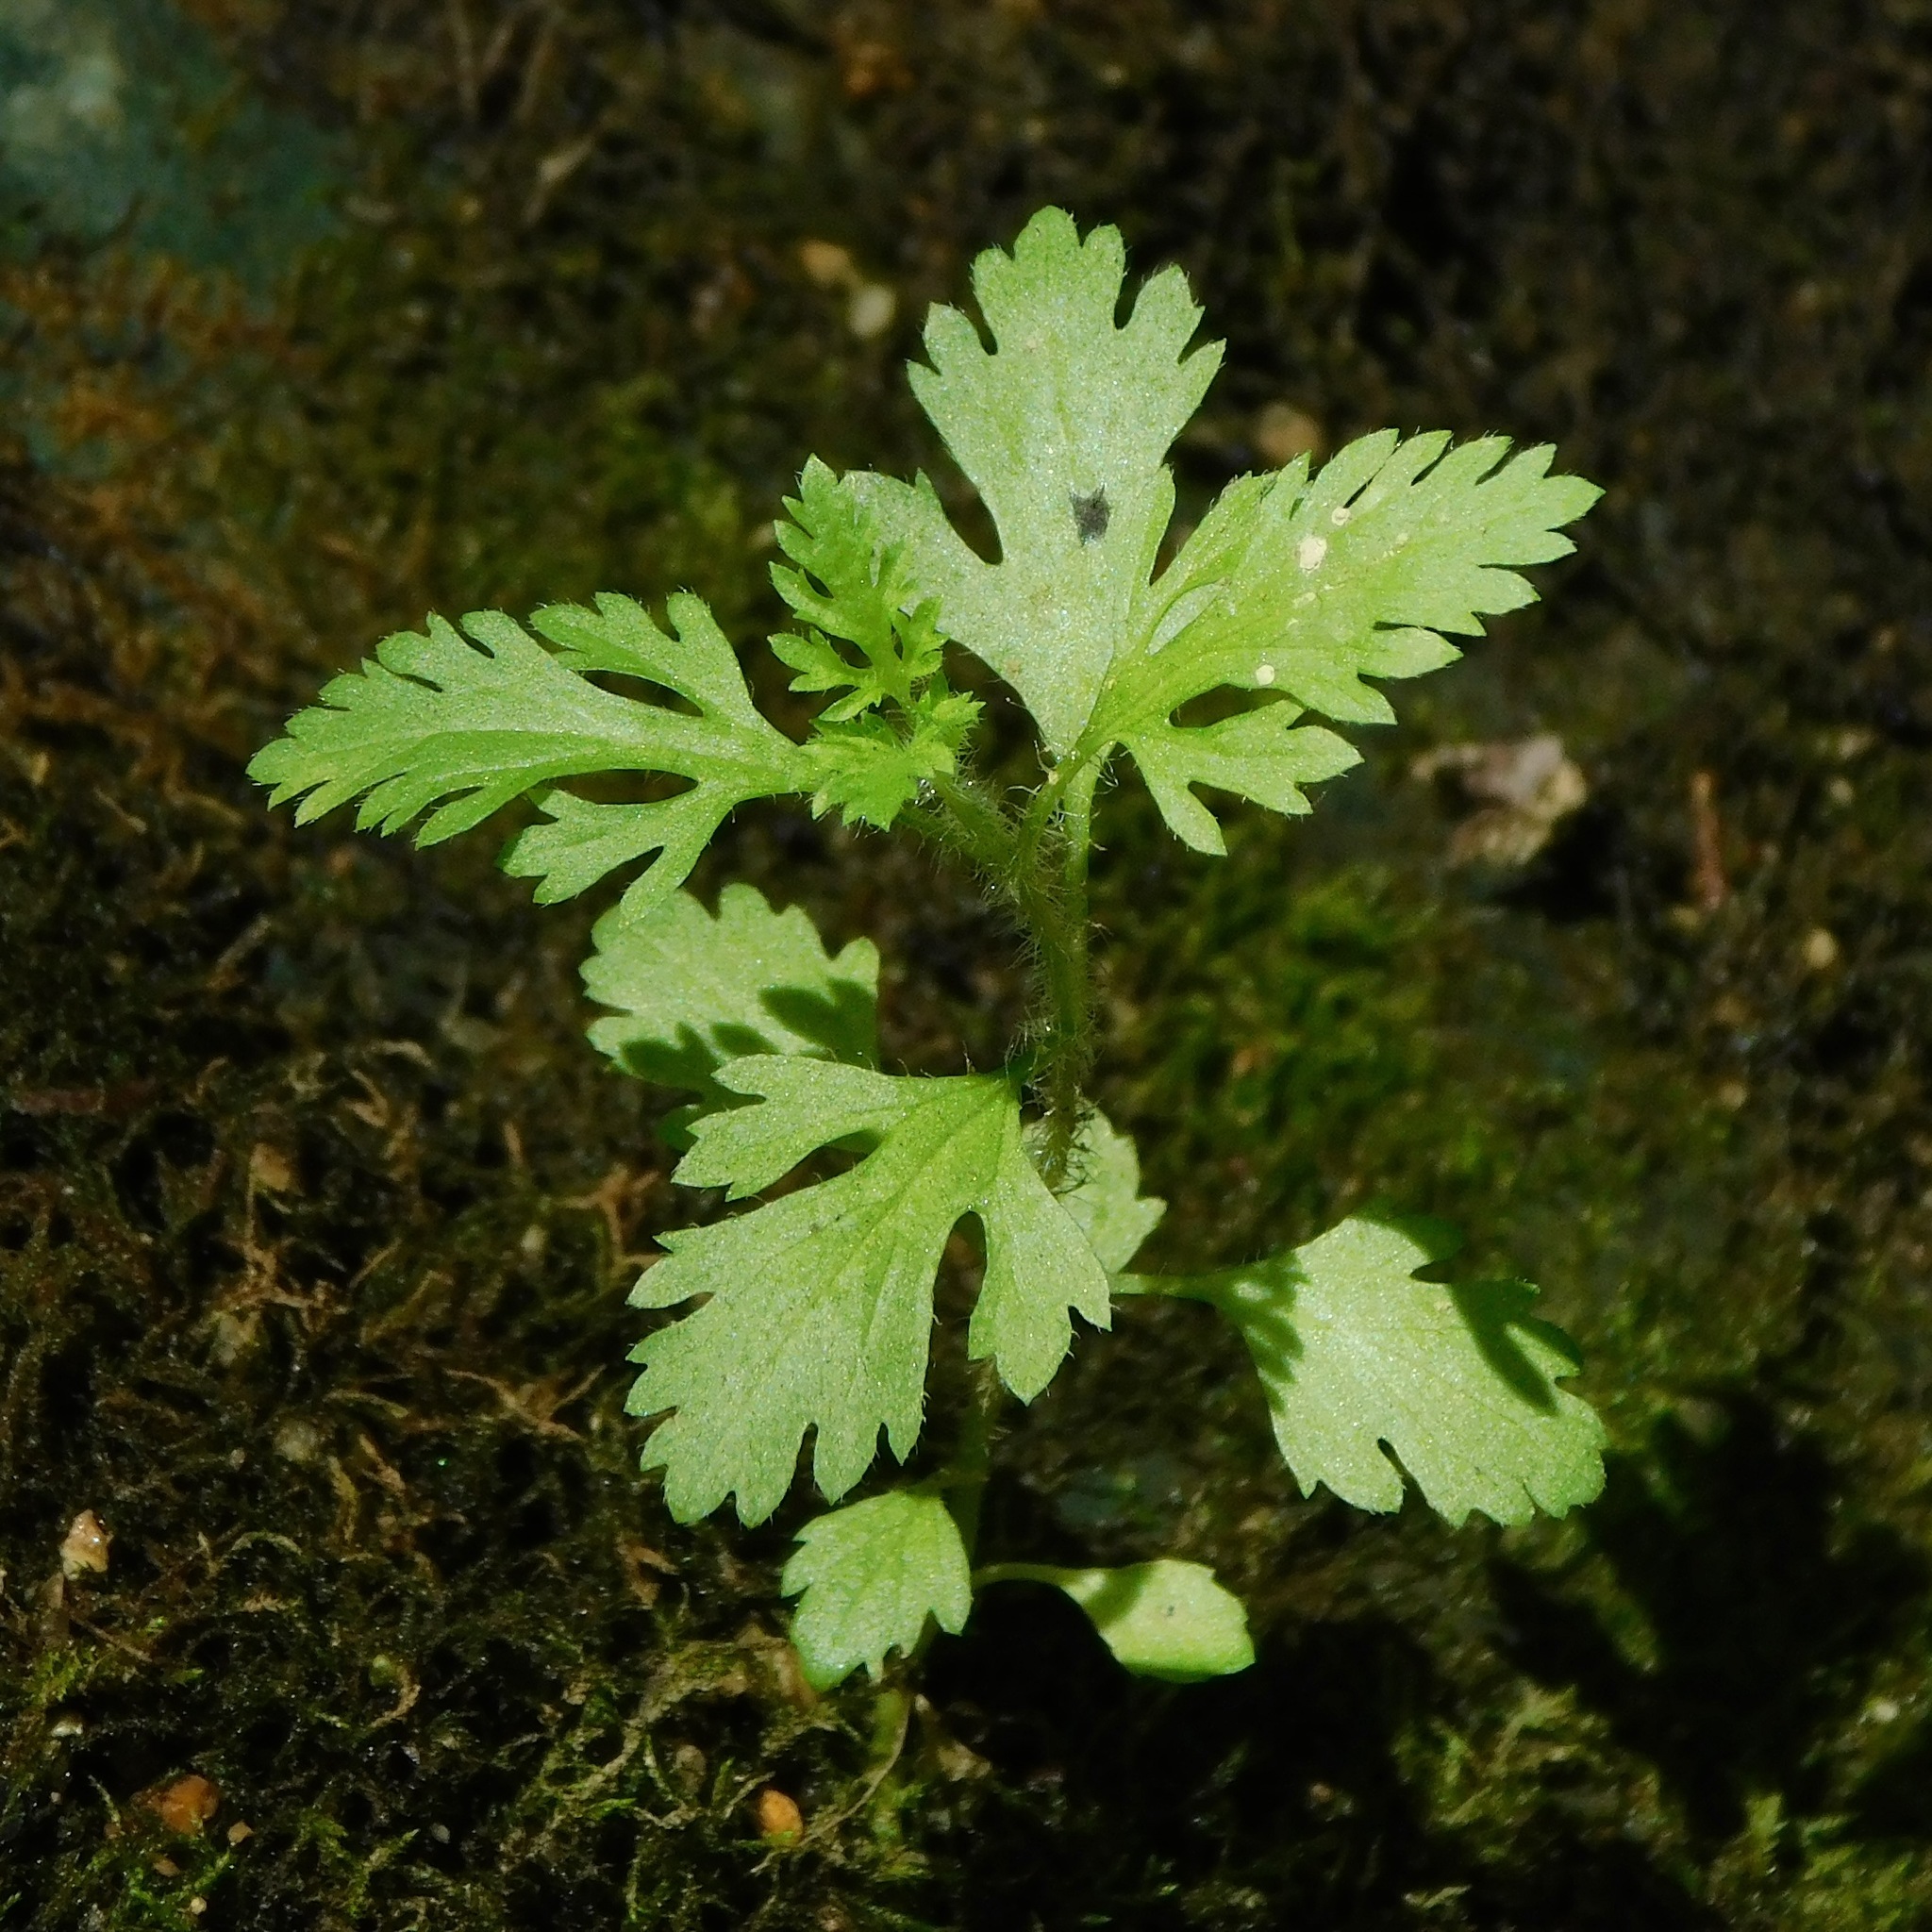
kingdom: Plantae
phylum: Tracheophyta
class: Magnoliopsida
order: Asterales
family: Asteraceae
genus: Artemisia
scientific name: Artemisia vulgaris
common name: Mugwort
